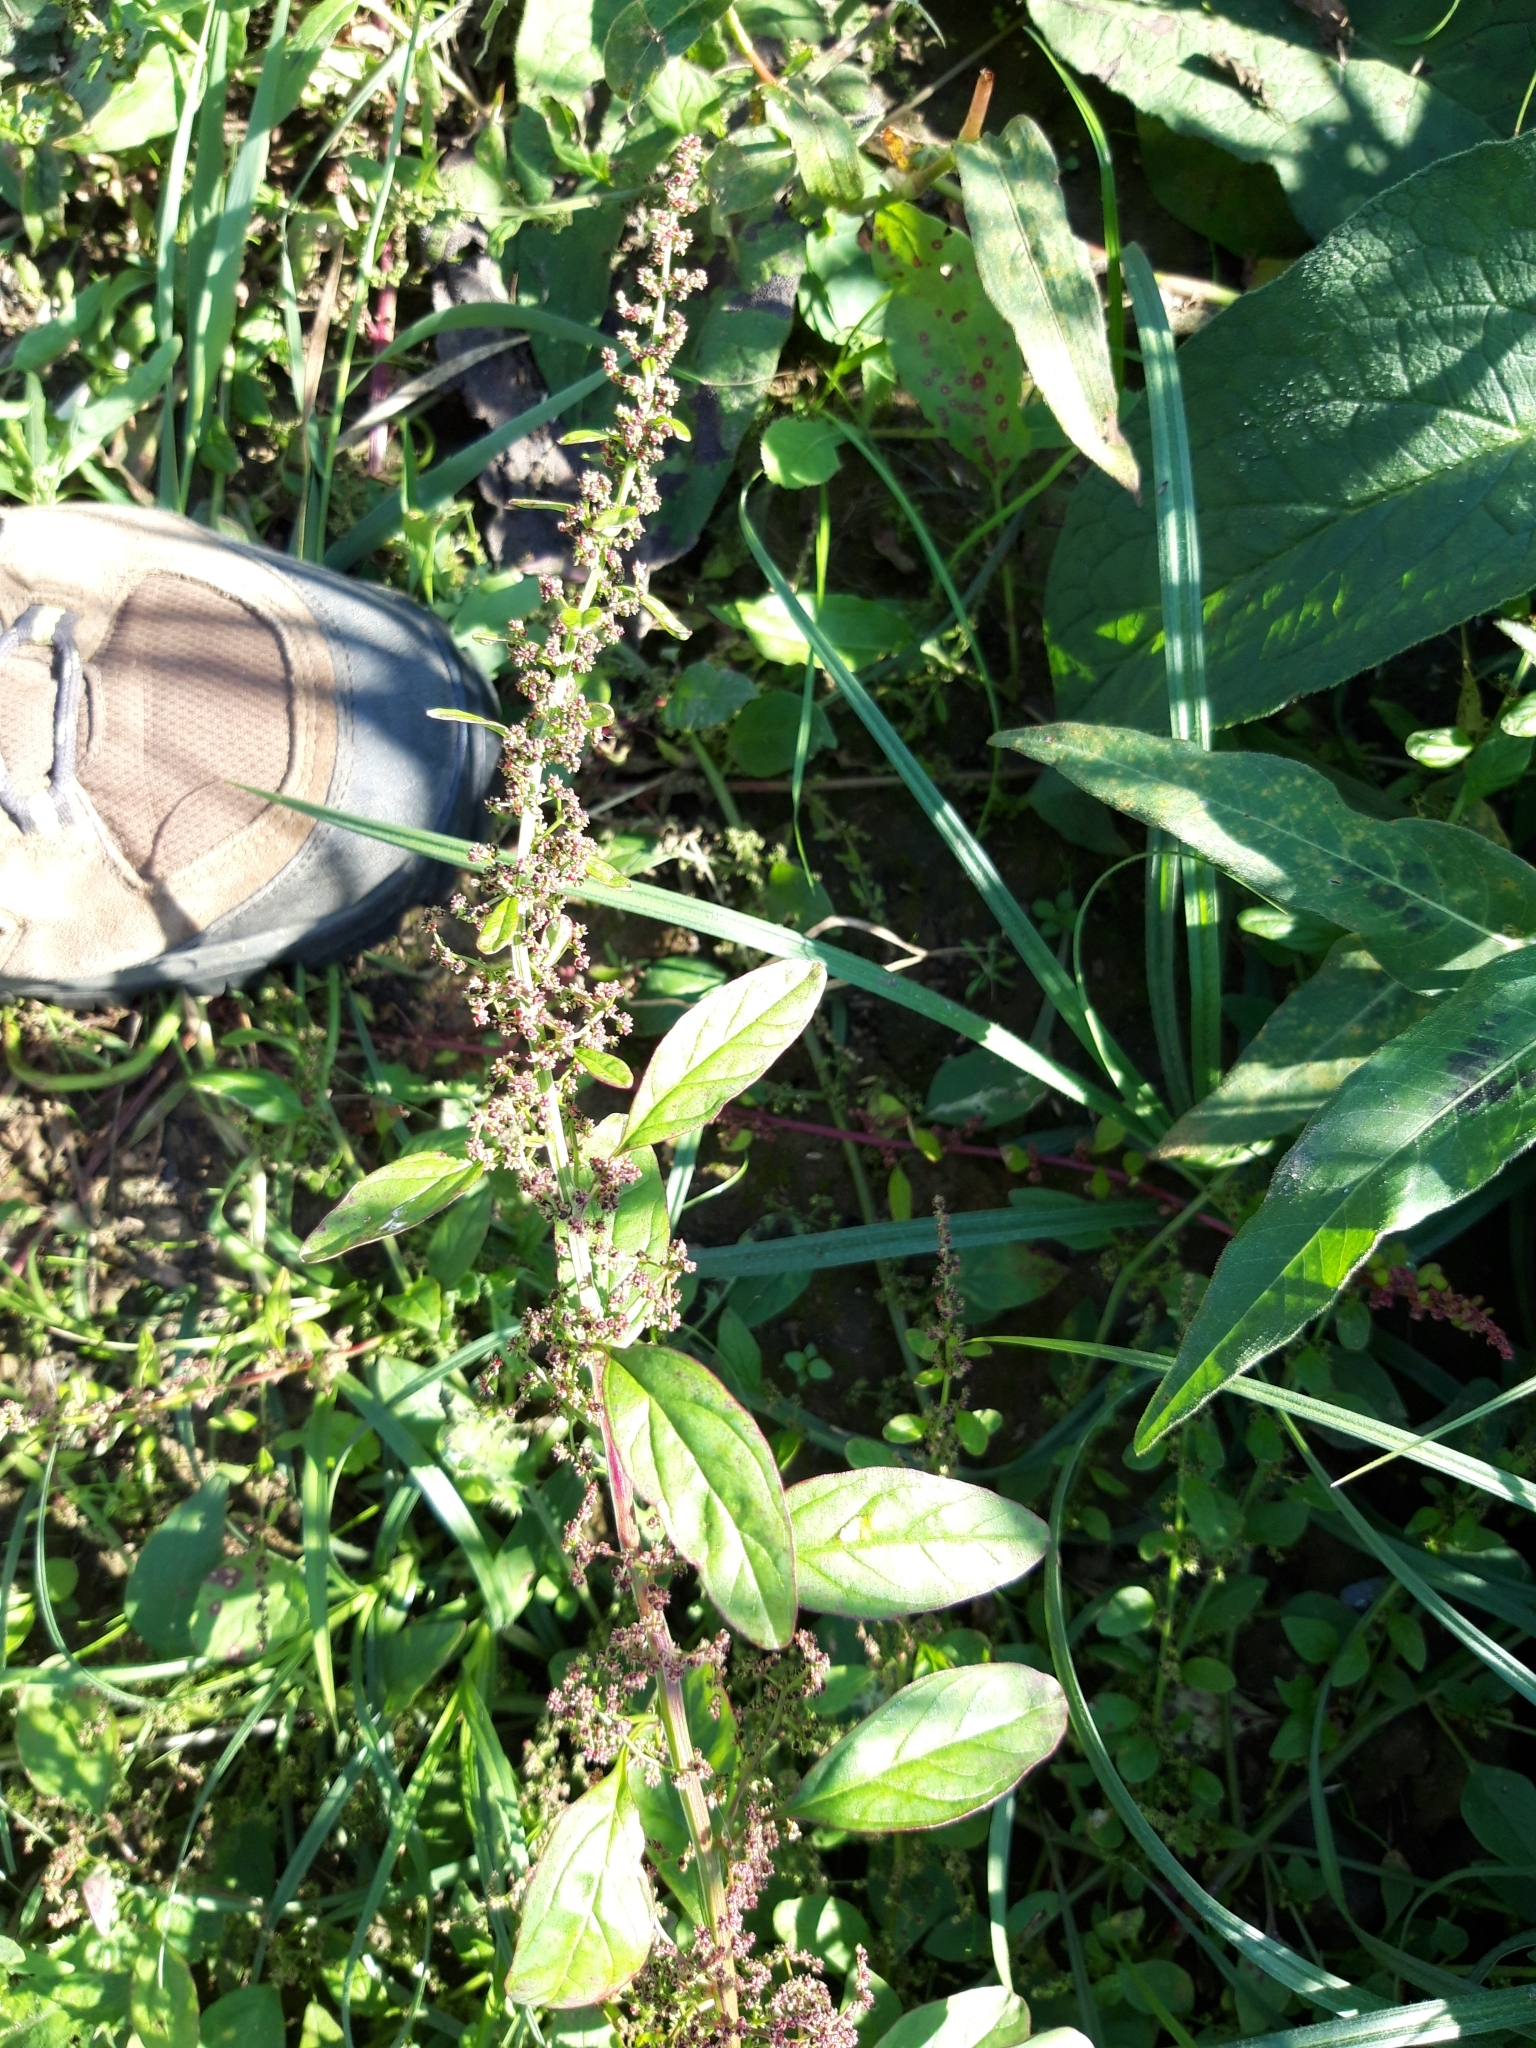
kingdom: Plantae
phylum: Tracheophyta
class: Magnoliopsida
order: Caryophyllales
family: Amaranthaceae
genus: Lipandra
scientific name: Lipandra polysperma
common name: Many-seed goosefoot
